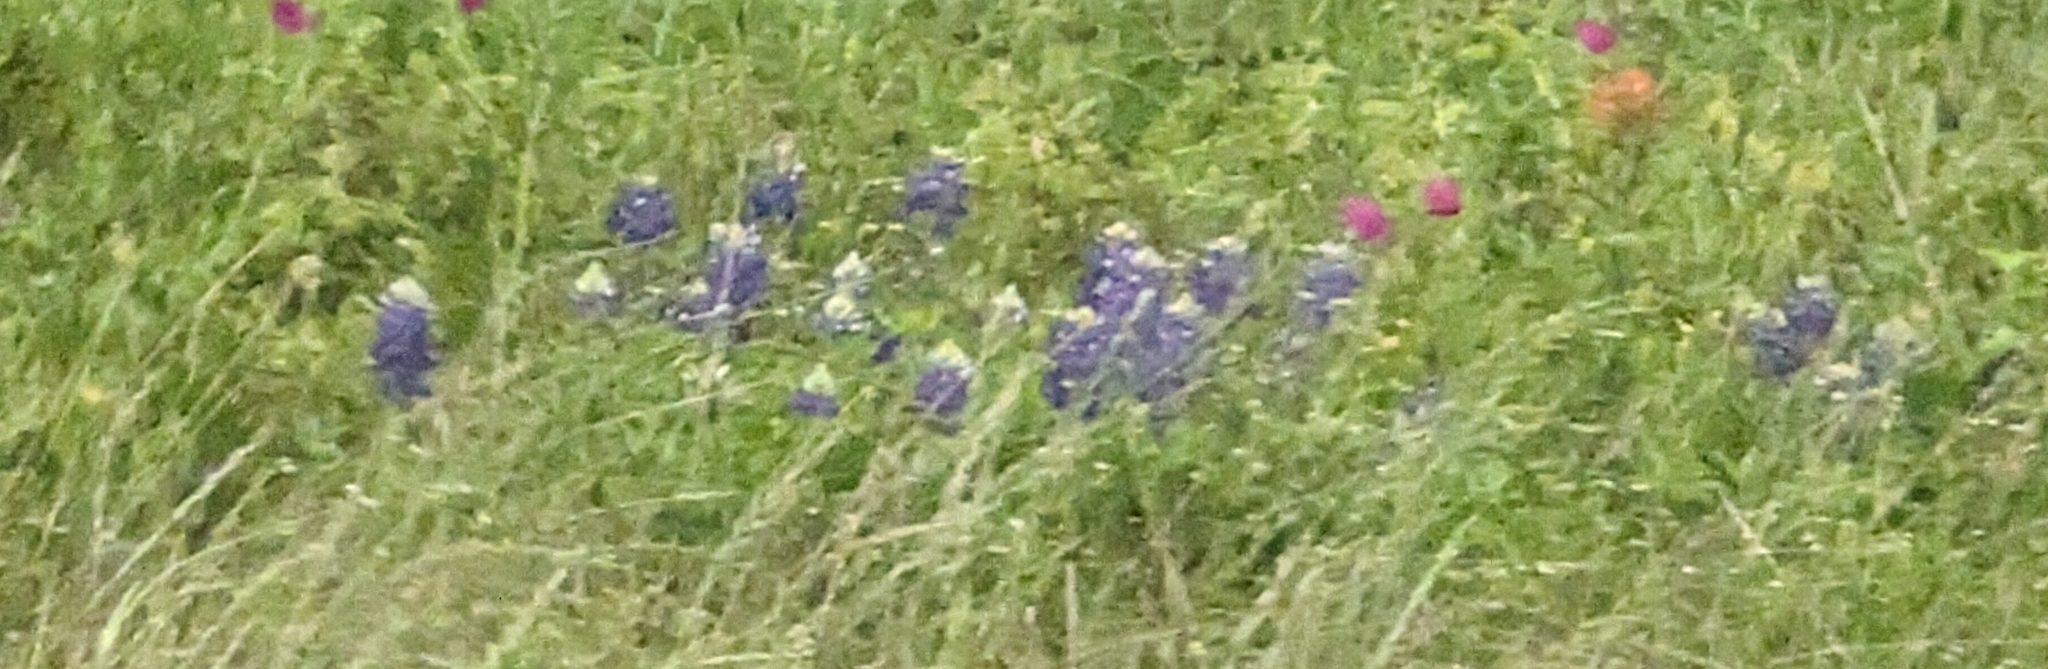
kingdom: Plantae
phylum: Tracheophyta
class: Magnoliopsida
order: Fabales
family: Fabaceae
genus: Lupinus
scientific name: Lupinus texensis
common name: Texas bluebonnet
